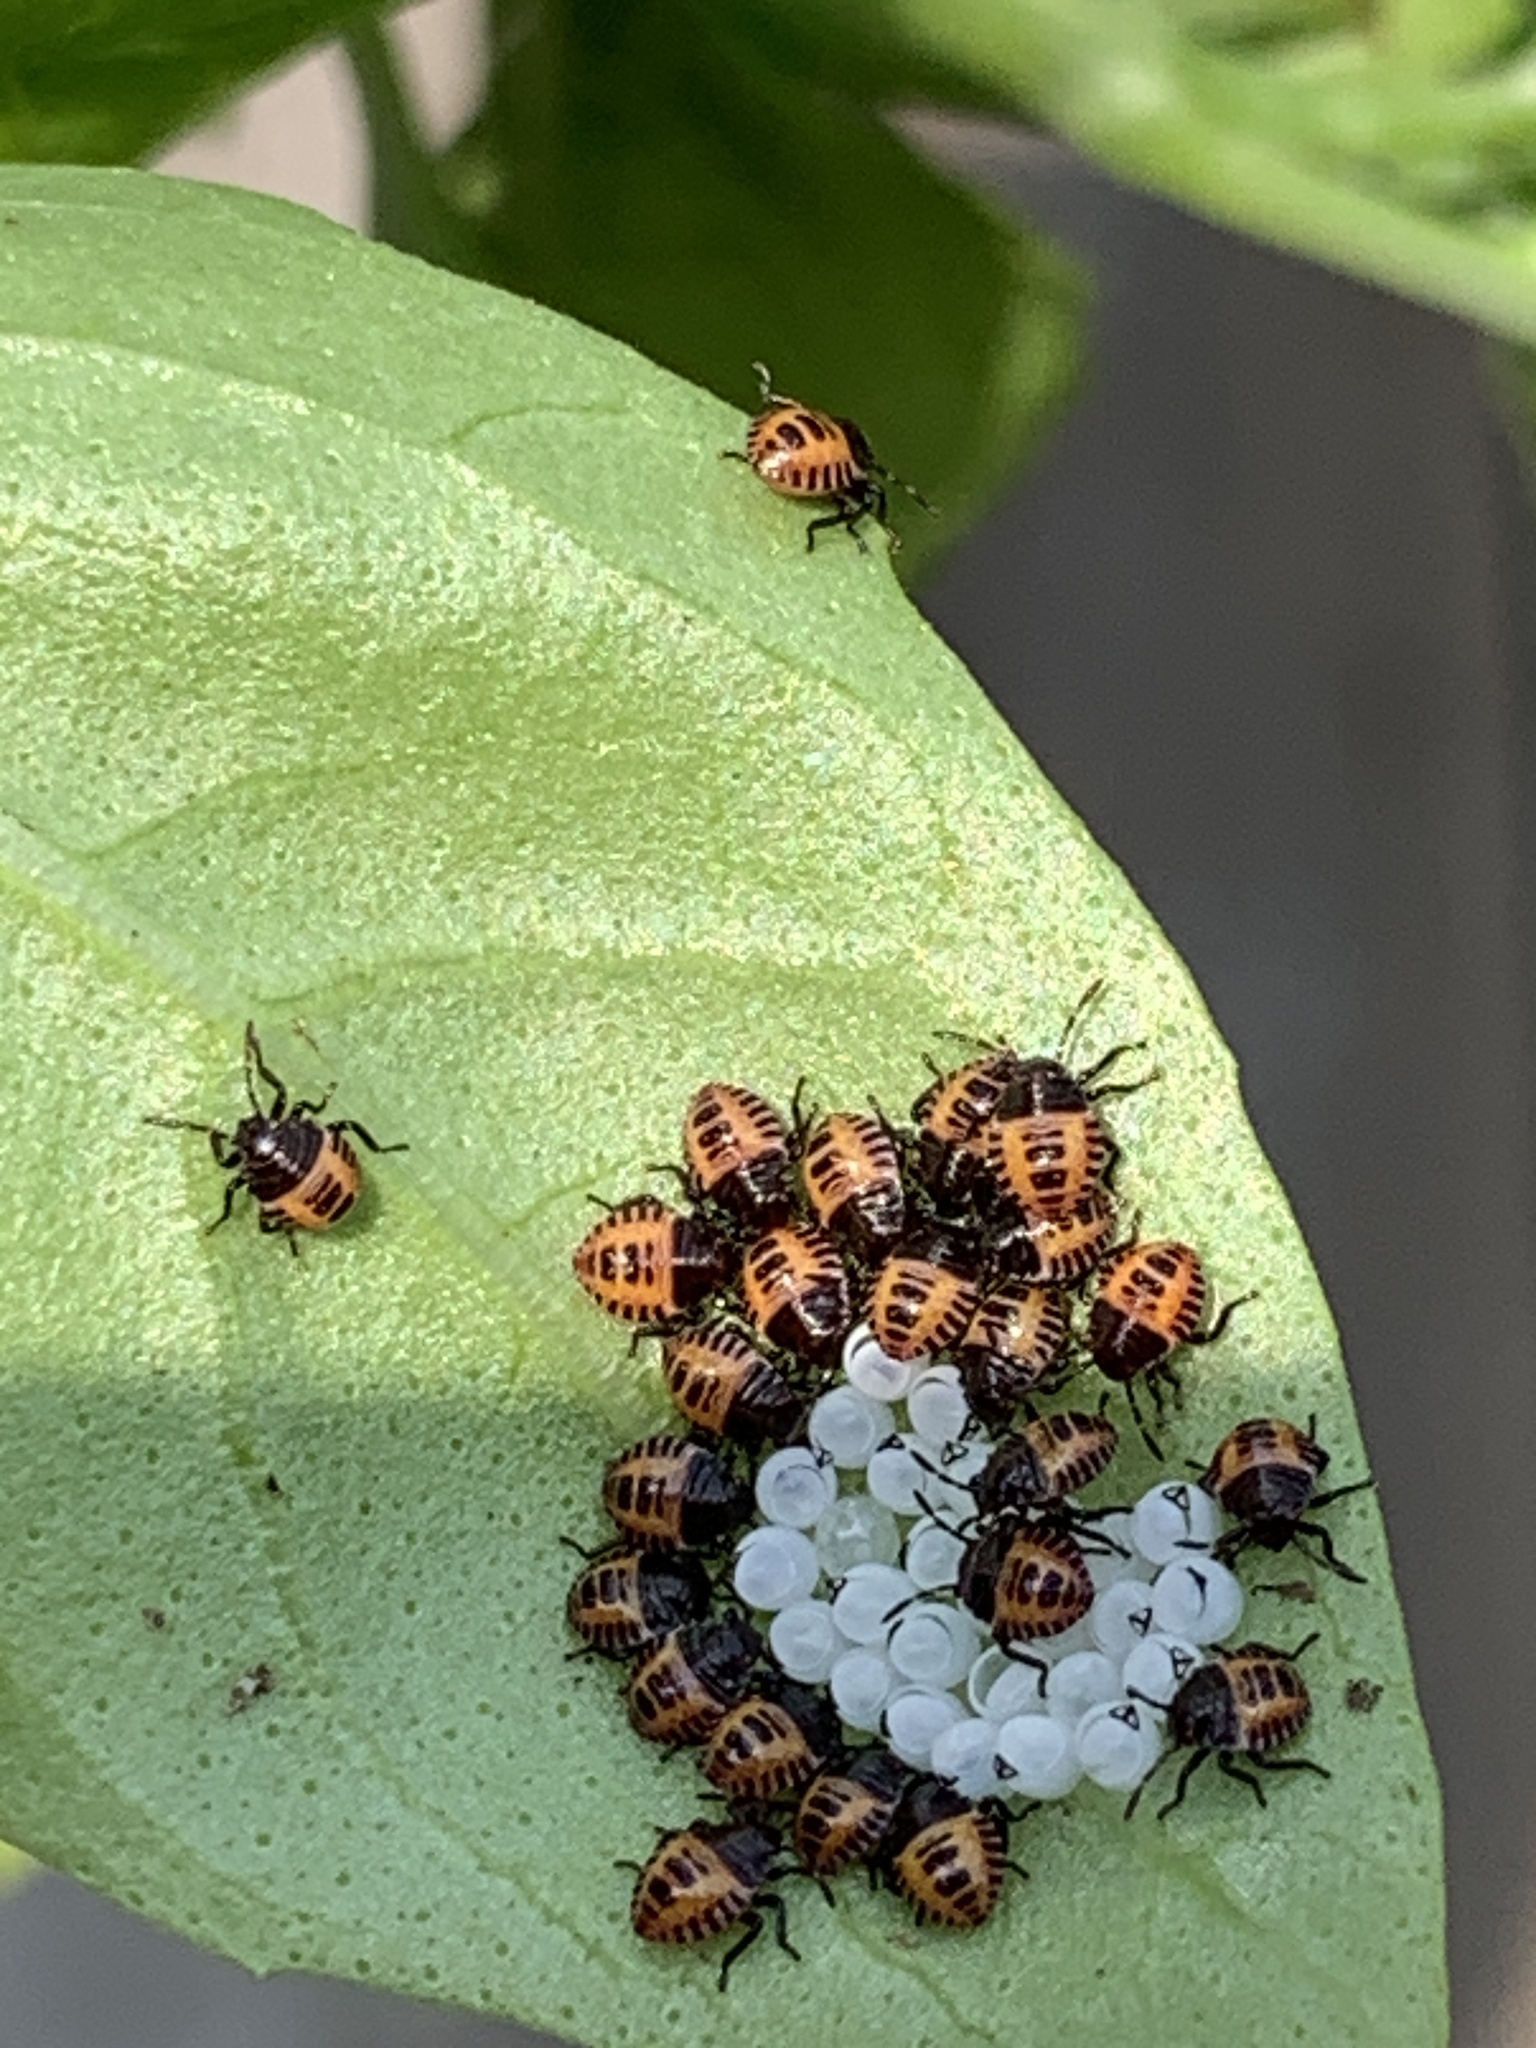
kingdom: Animalia
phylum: Arthropoda
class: Insecta
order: Hemiptera
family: Pentatomidae
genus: Halyomorpha
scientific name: Halyomorpha halys
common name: Brown marmorated stink bug
